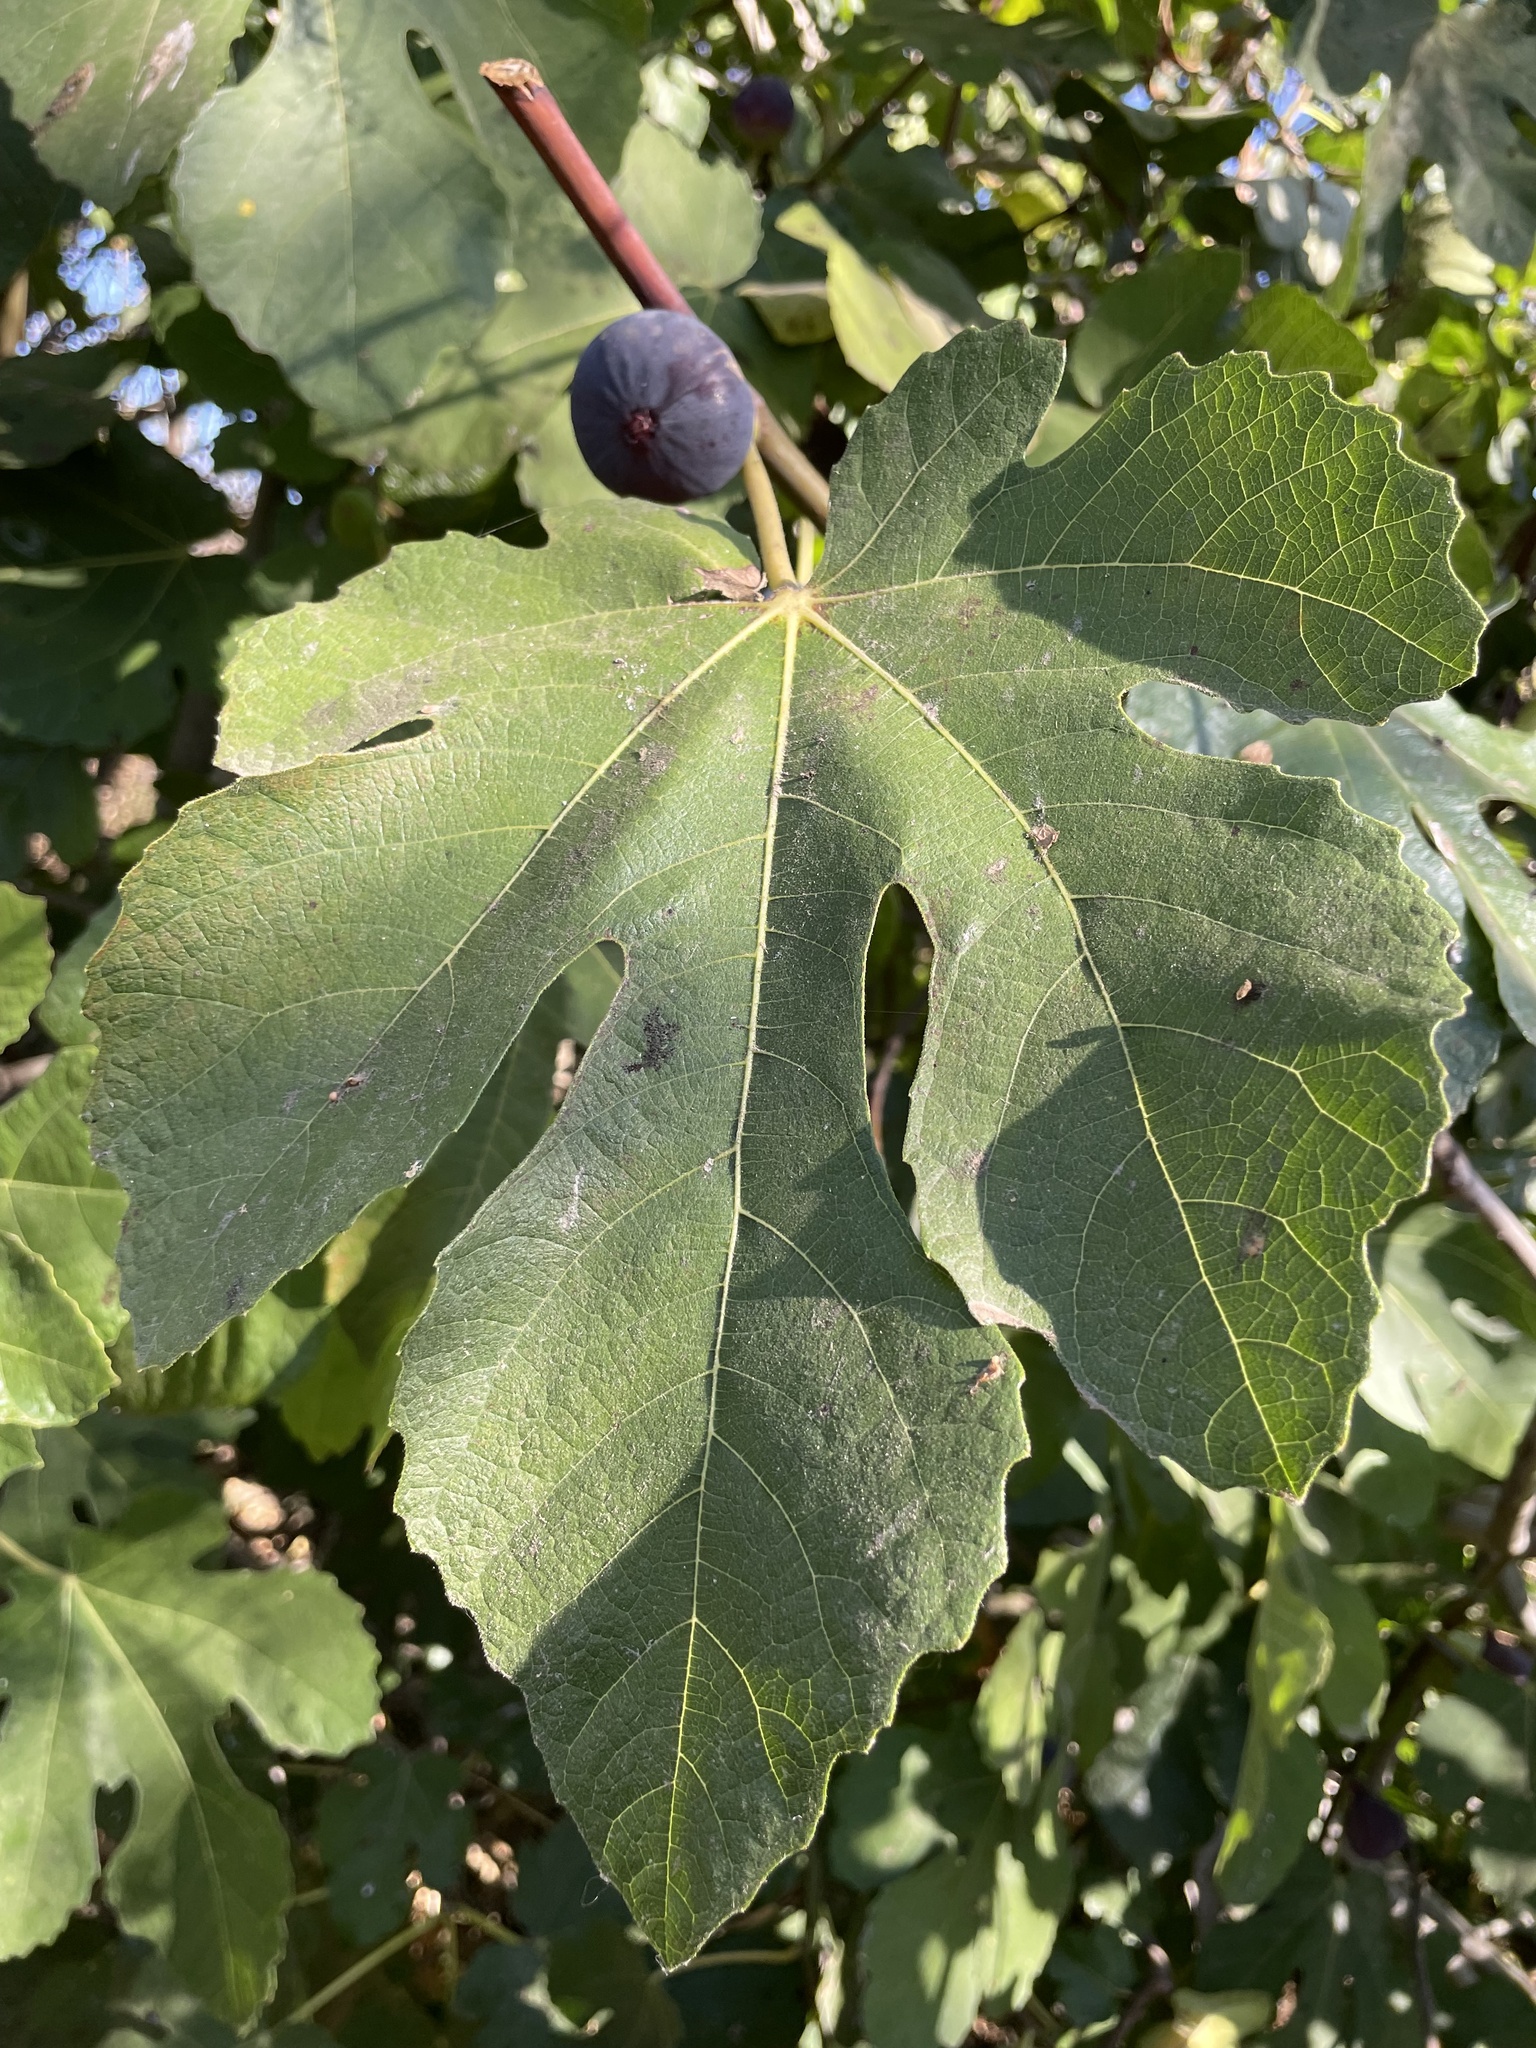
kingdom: Plantae
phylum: Tracheophyta
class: Magnoliopsida
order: Rosales
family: Moraceae
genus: Ficus
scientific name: Ficus carica
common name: Fig
